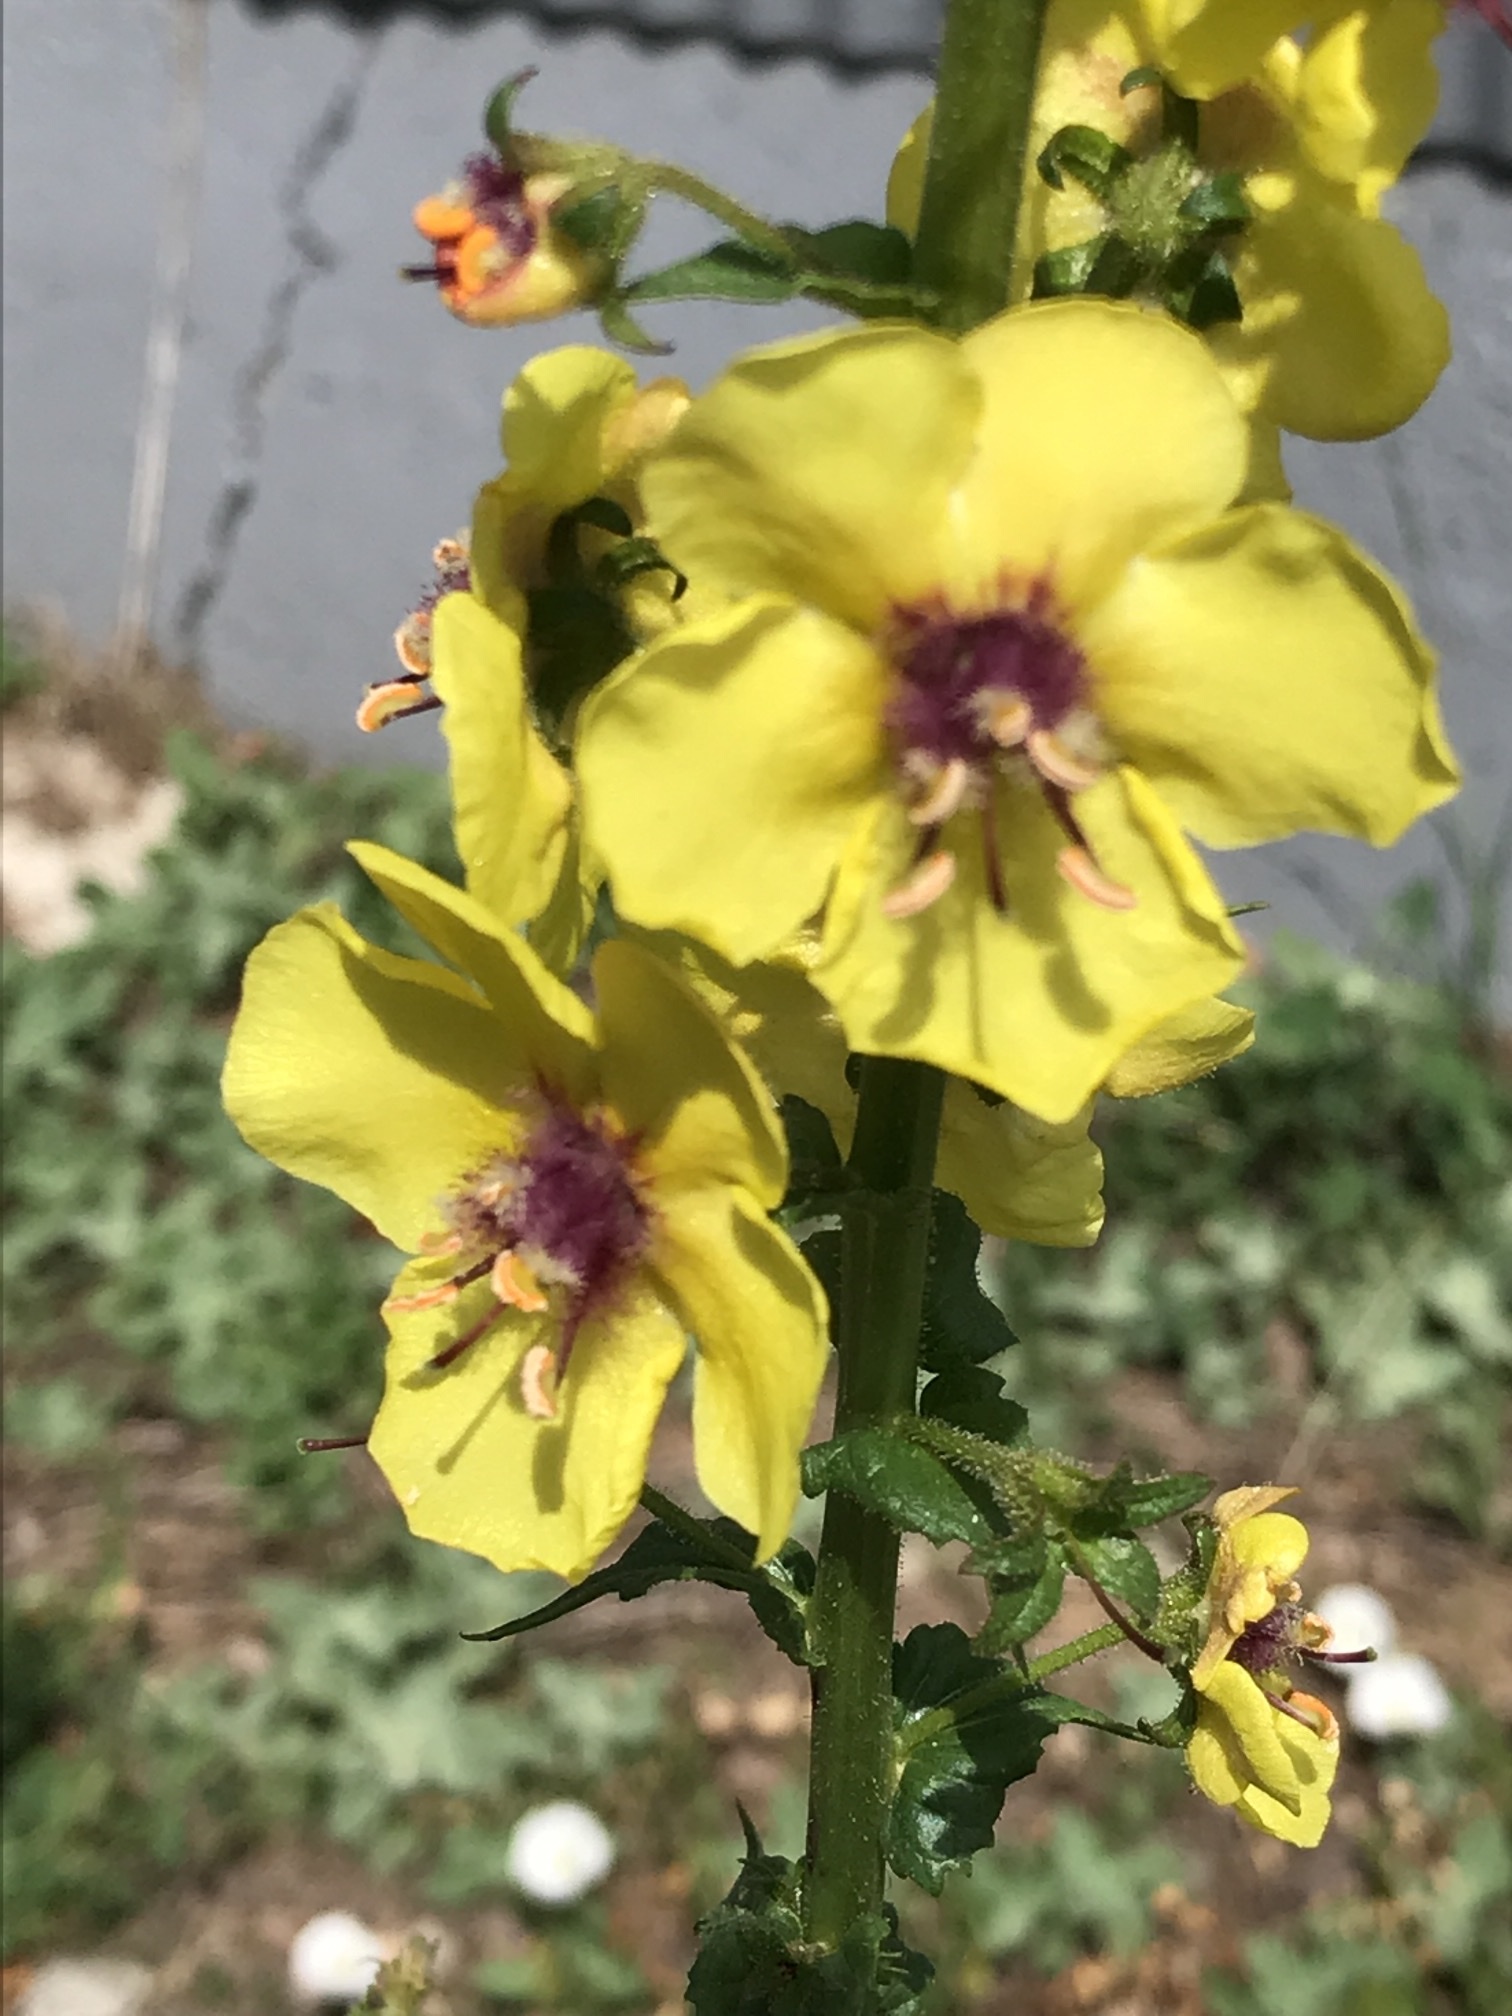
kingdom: Plantae
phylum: Tracheophyta
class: Magnoliopsida
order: Lamiales
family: Scrophulariaceae
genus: Verbascum
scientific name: Verbascum blattaria
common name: Moth mullein
